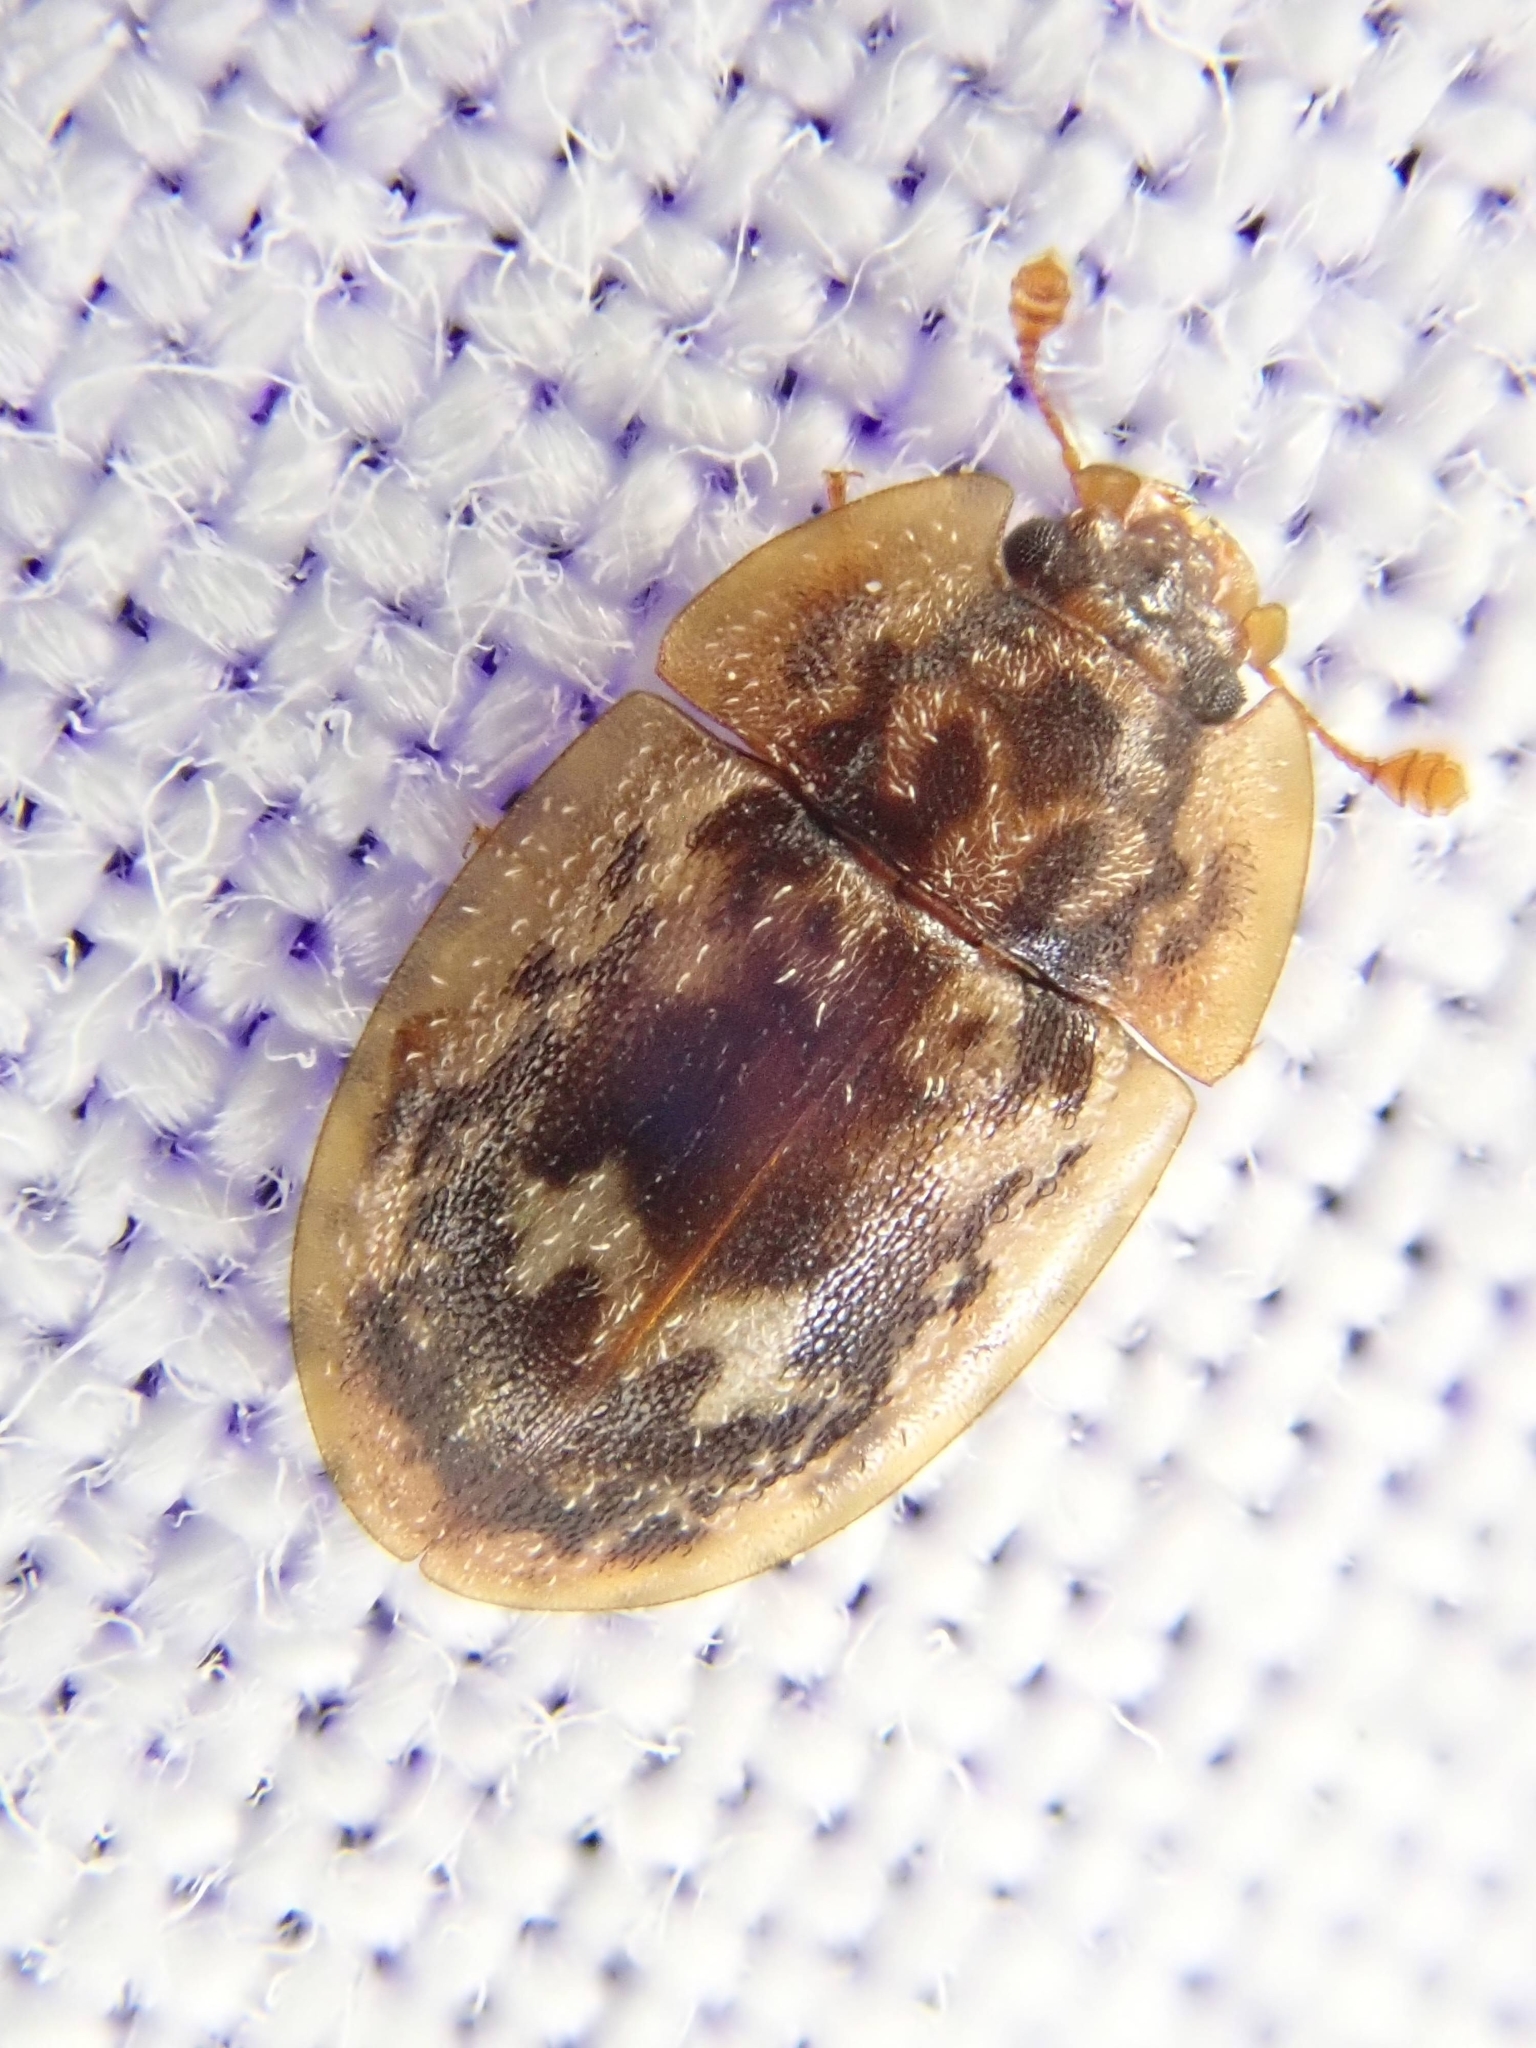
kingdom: Animalia
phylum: Arthropoda
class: Insecta
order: Coleoptera
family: Nitidulidae
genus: Lobiopa
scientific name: Lobiopa undulata
